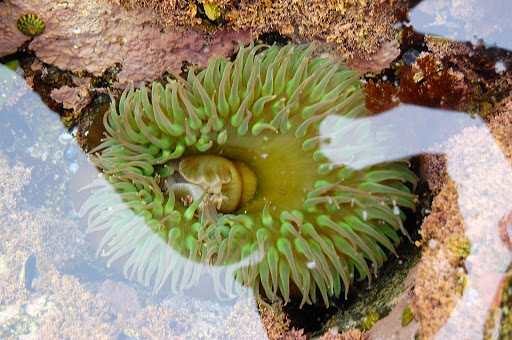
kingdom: Animalia
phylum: Cnidaria
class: Anthozoa
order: Actiniaria
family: Actiniidae
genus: Anthopleura
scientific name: Anthopleura xanthogrammica
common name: Giant green anemone
